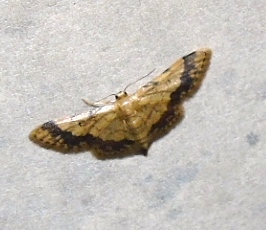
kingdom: Animalia
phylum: Arthropoda
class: Insecta
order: Lepidoptera
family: Geometridae
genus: Idaea
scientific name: Idaea
